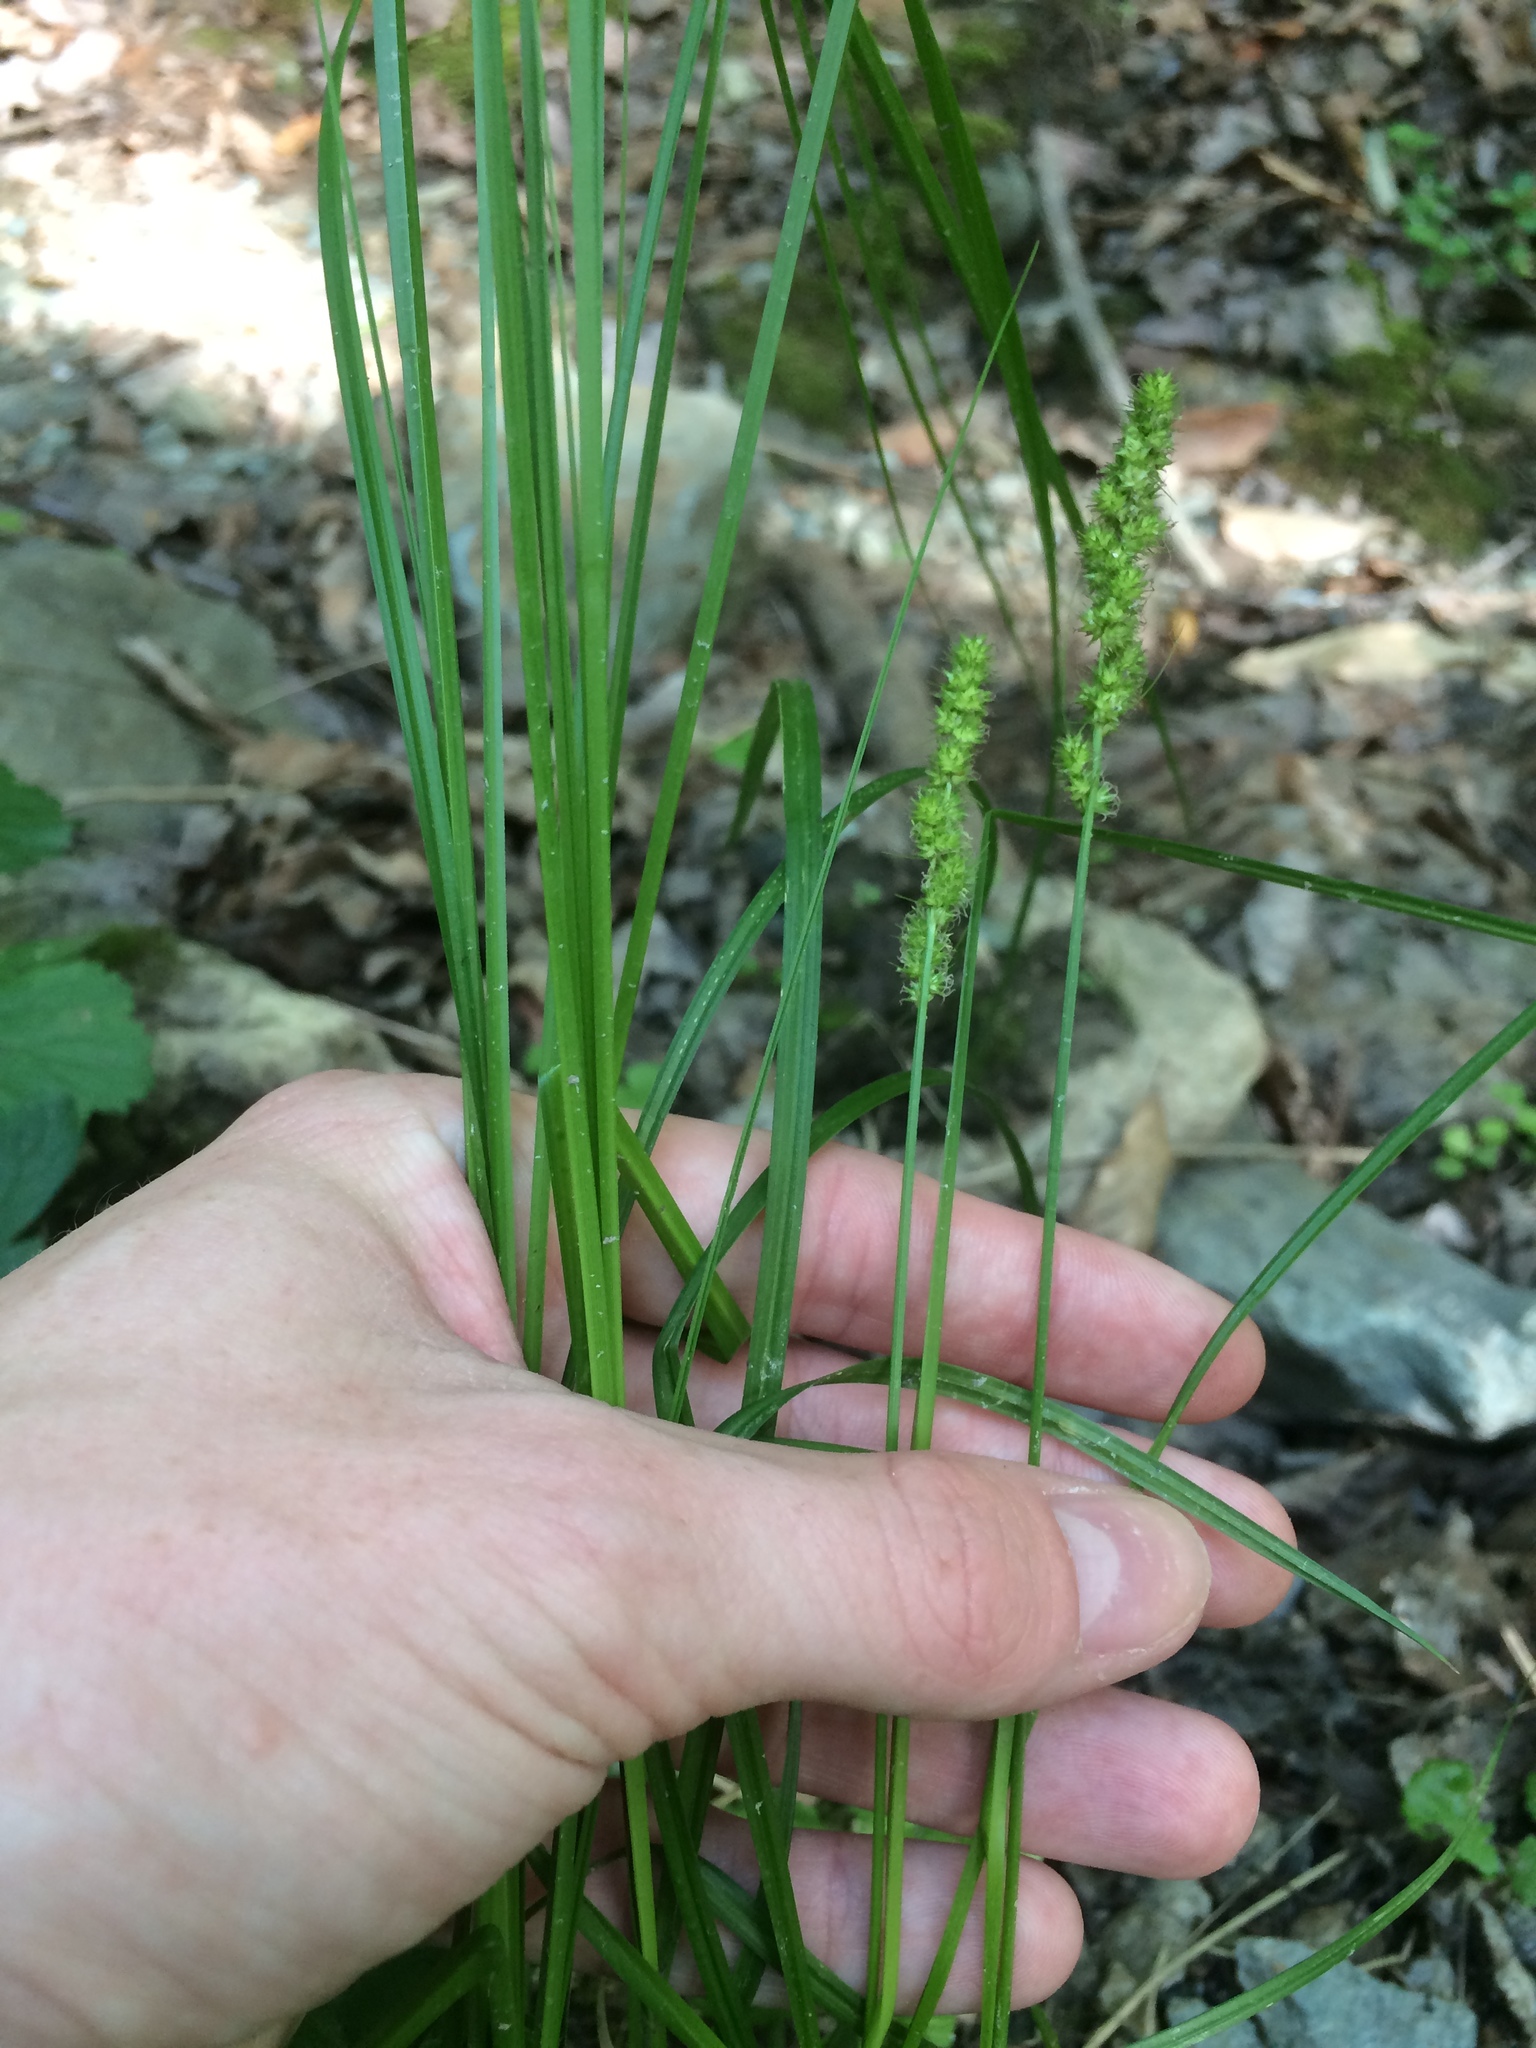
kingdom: Plantae
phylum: Tracheophyta
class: Liliopsida
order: Poales
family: Cyperaceae
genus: Carex
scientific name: Carex vulpinoidea
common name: American fox-sedge
